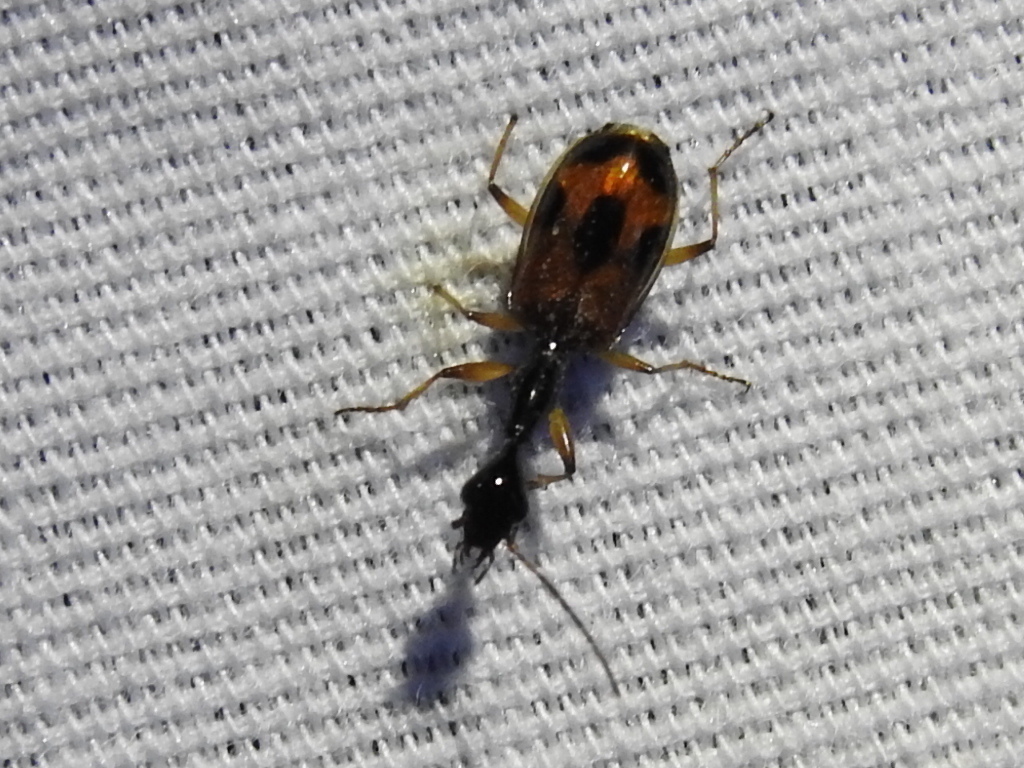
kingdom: Animalia
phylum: Arthropoda
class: Insecta
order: Coleoptera
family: Carabidae
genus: Colliuris
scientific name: Colliuris pensylvanica
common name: Long-necked ground beetle
